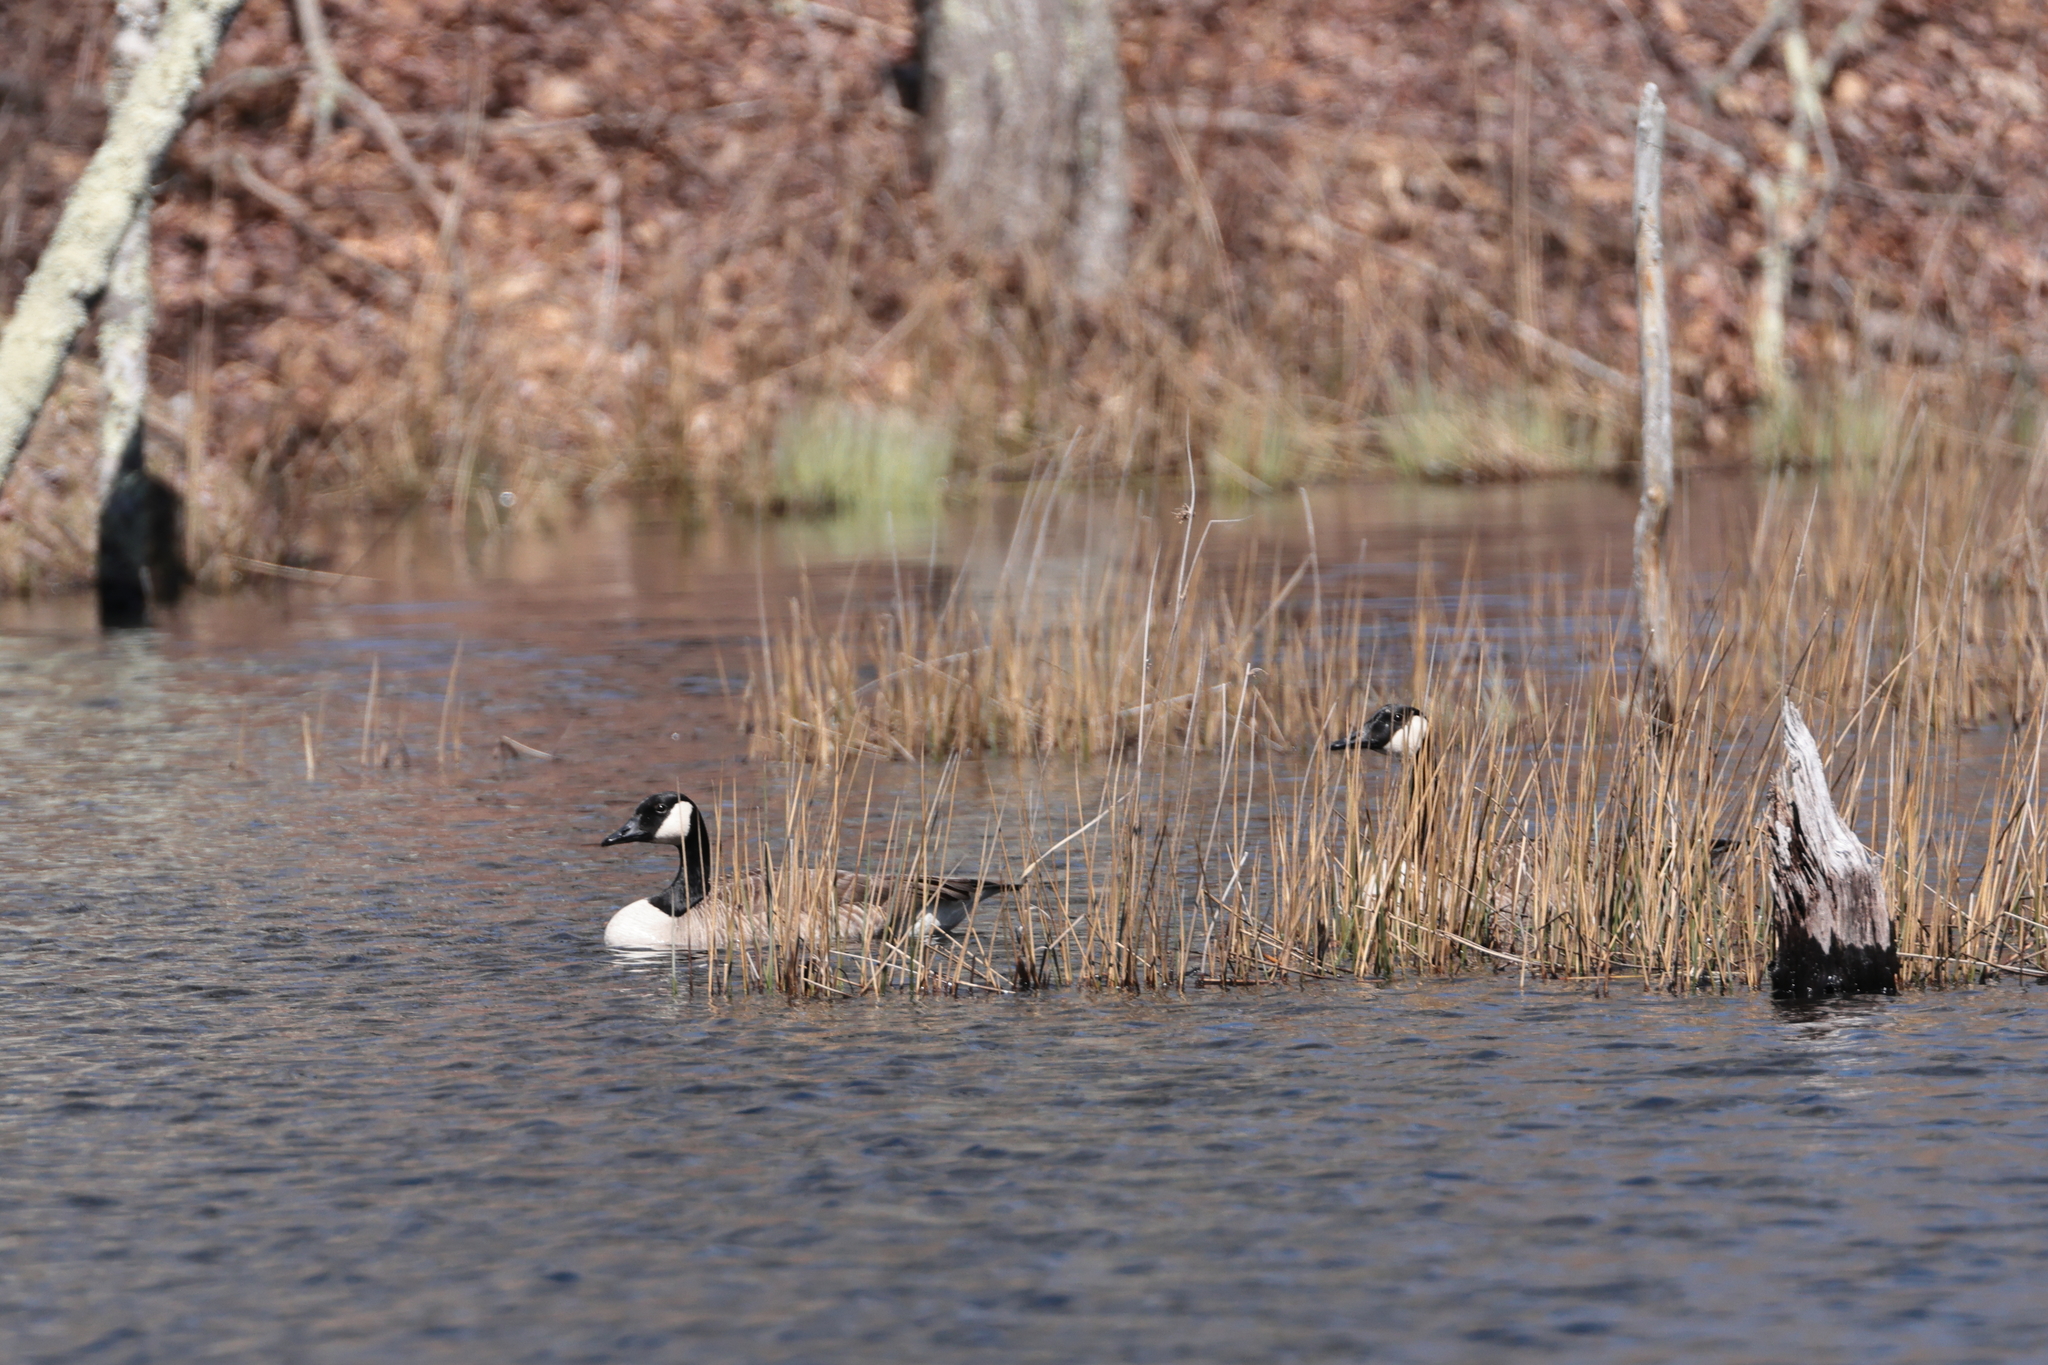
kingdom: Animalia
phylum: Chordata
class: Aves
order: Anseriformes
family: Anatidae
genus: Branta
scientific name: Branta canadensis
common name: Canada goose
